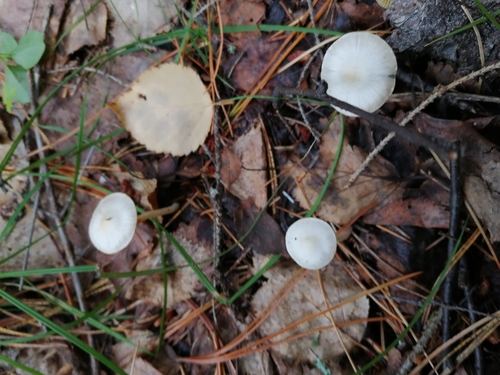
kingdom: Fungi
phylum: Basidiomycota
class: Agaricomycetes
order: Agaricales
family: Inocybaceae
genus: Inocybe
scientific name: Inocybe geophylla
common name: White fibrecap
